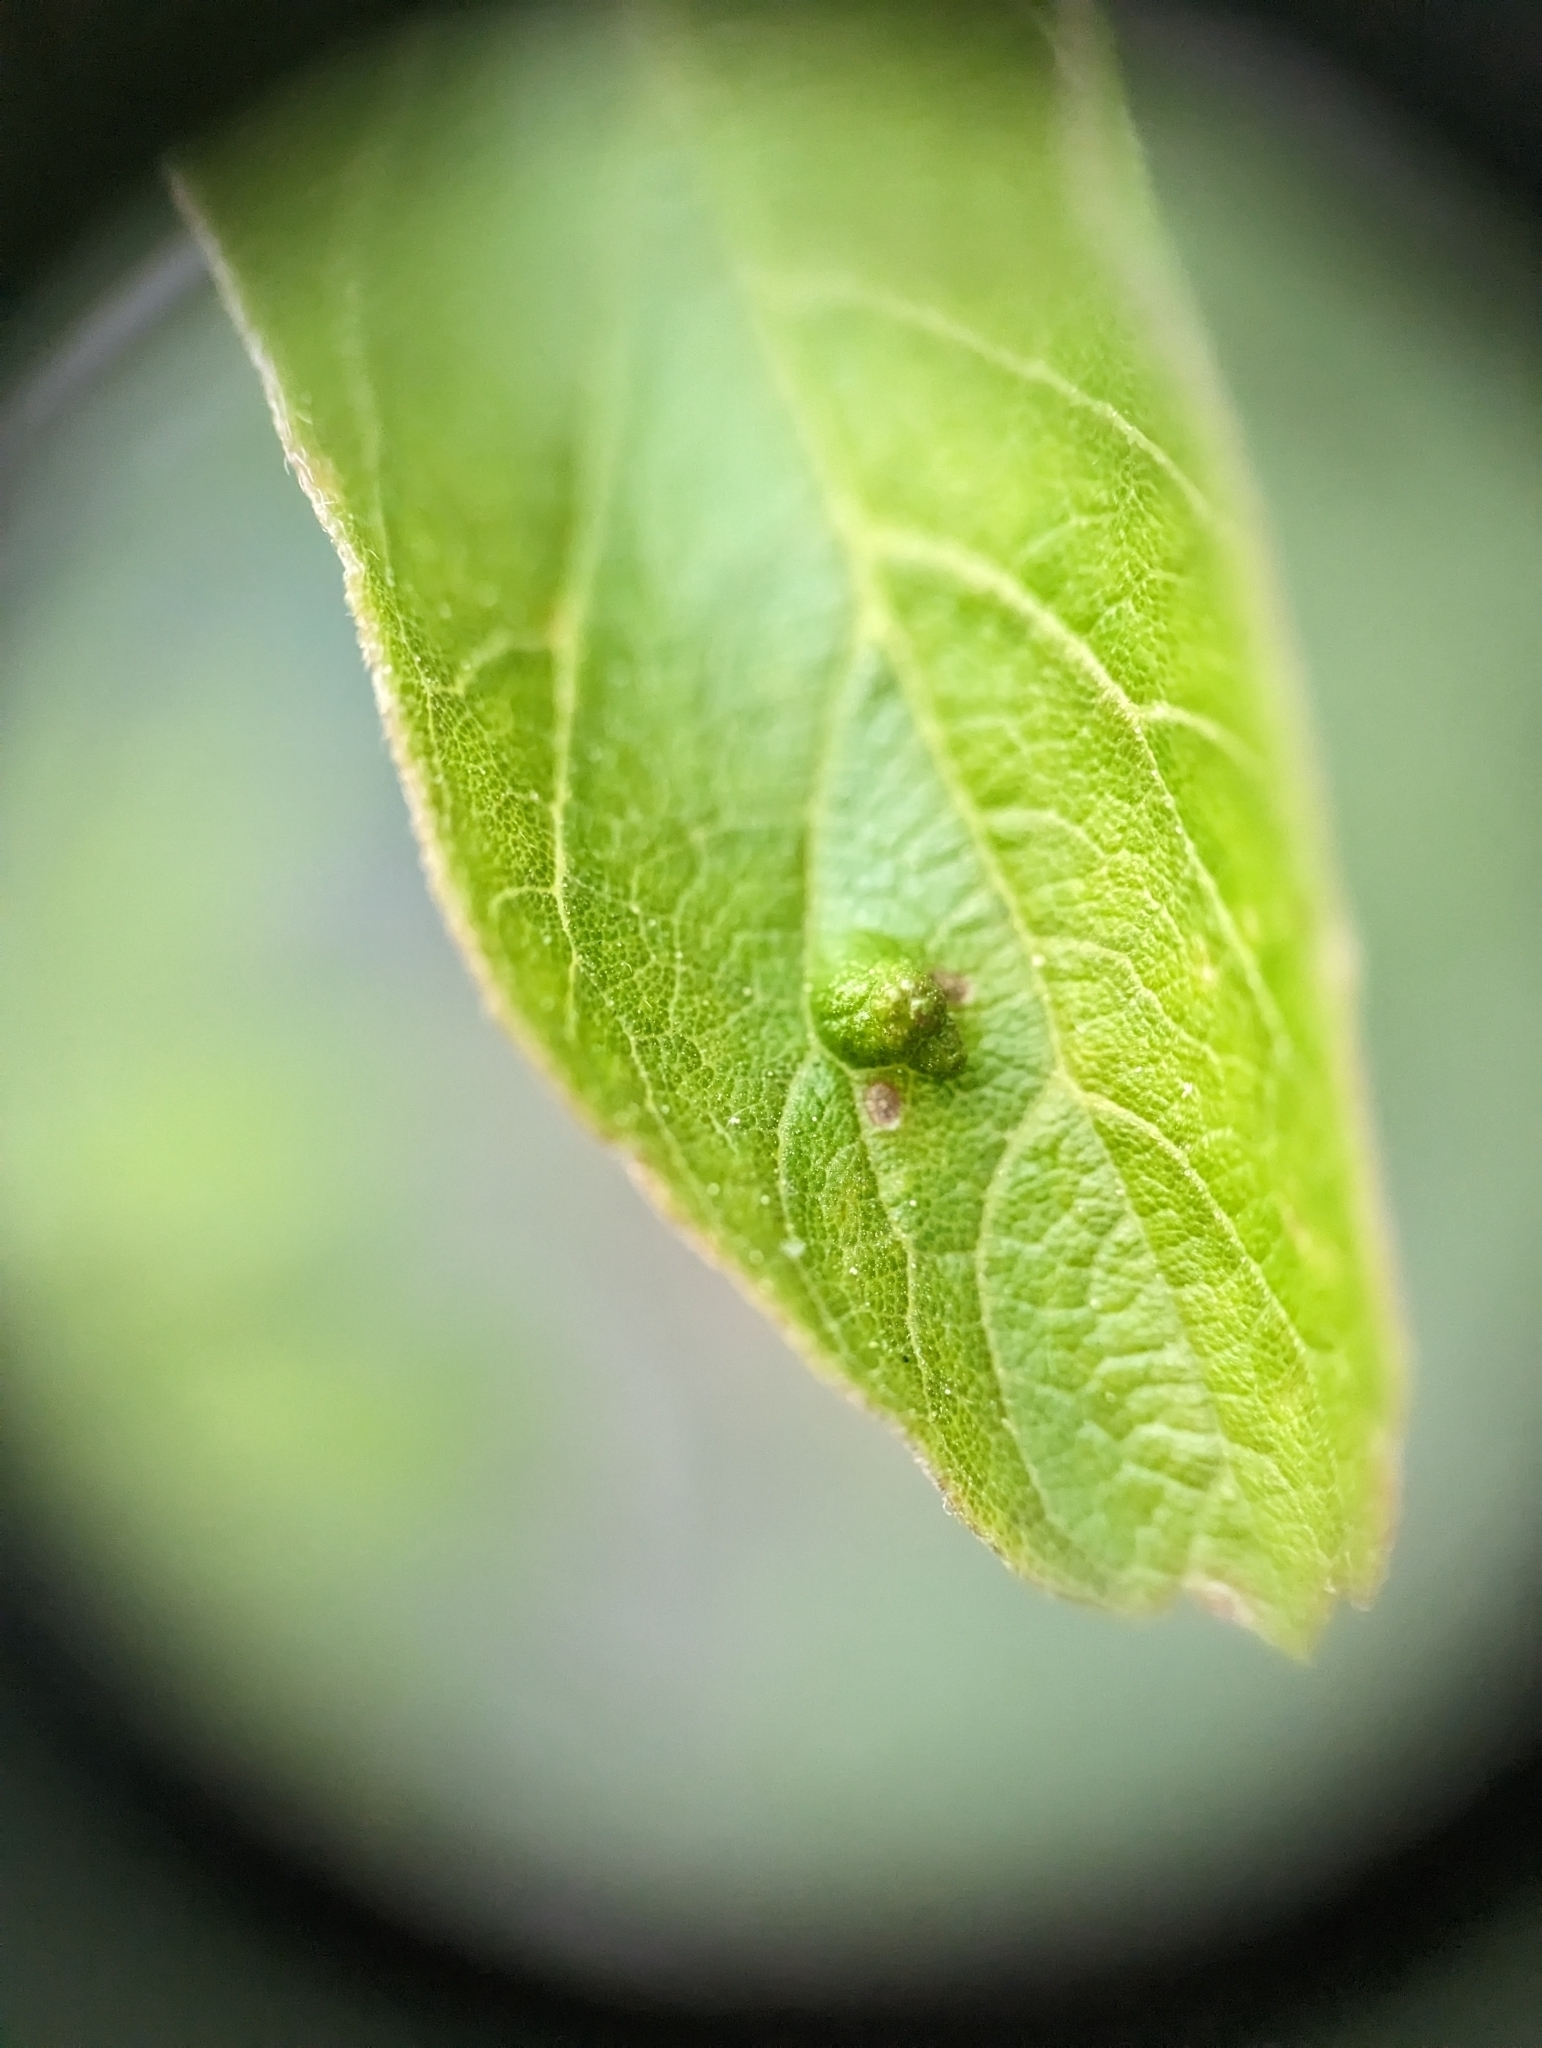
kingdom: Animalia
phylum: Arthropoda
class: Arachnida
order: Trombidiformes
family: Eriophyidae
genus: Aceria
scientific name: Aceria
